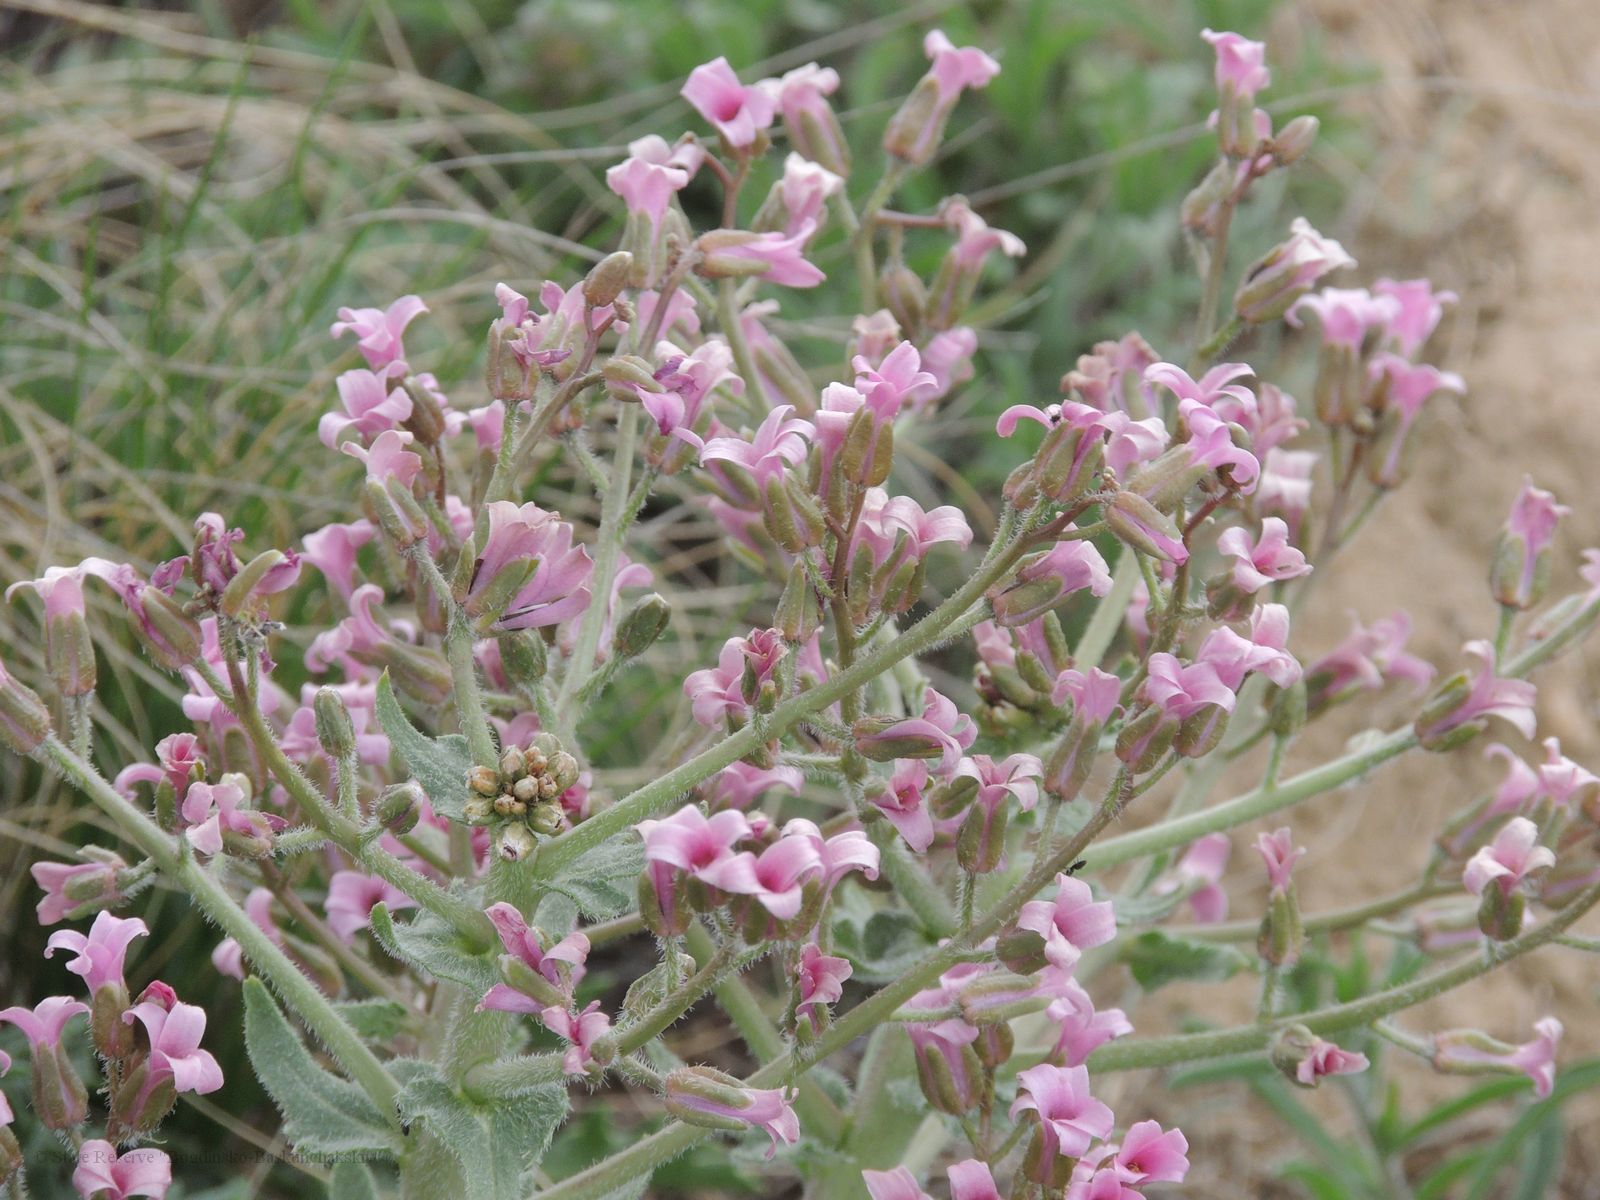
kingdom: Plantae
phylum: Tracheophyta
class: Magnoliopsida
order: Brassicales
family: Brassicaceae
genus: Megacarpaea
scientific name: Megacarpaea megalocarpa
